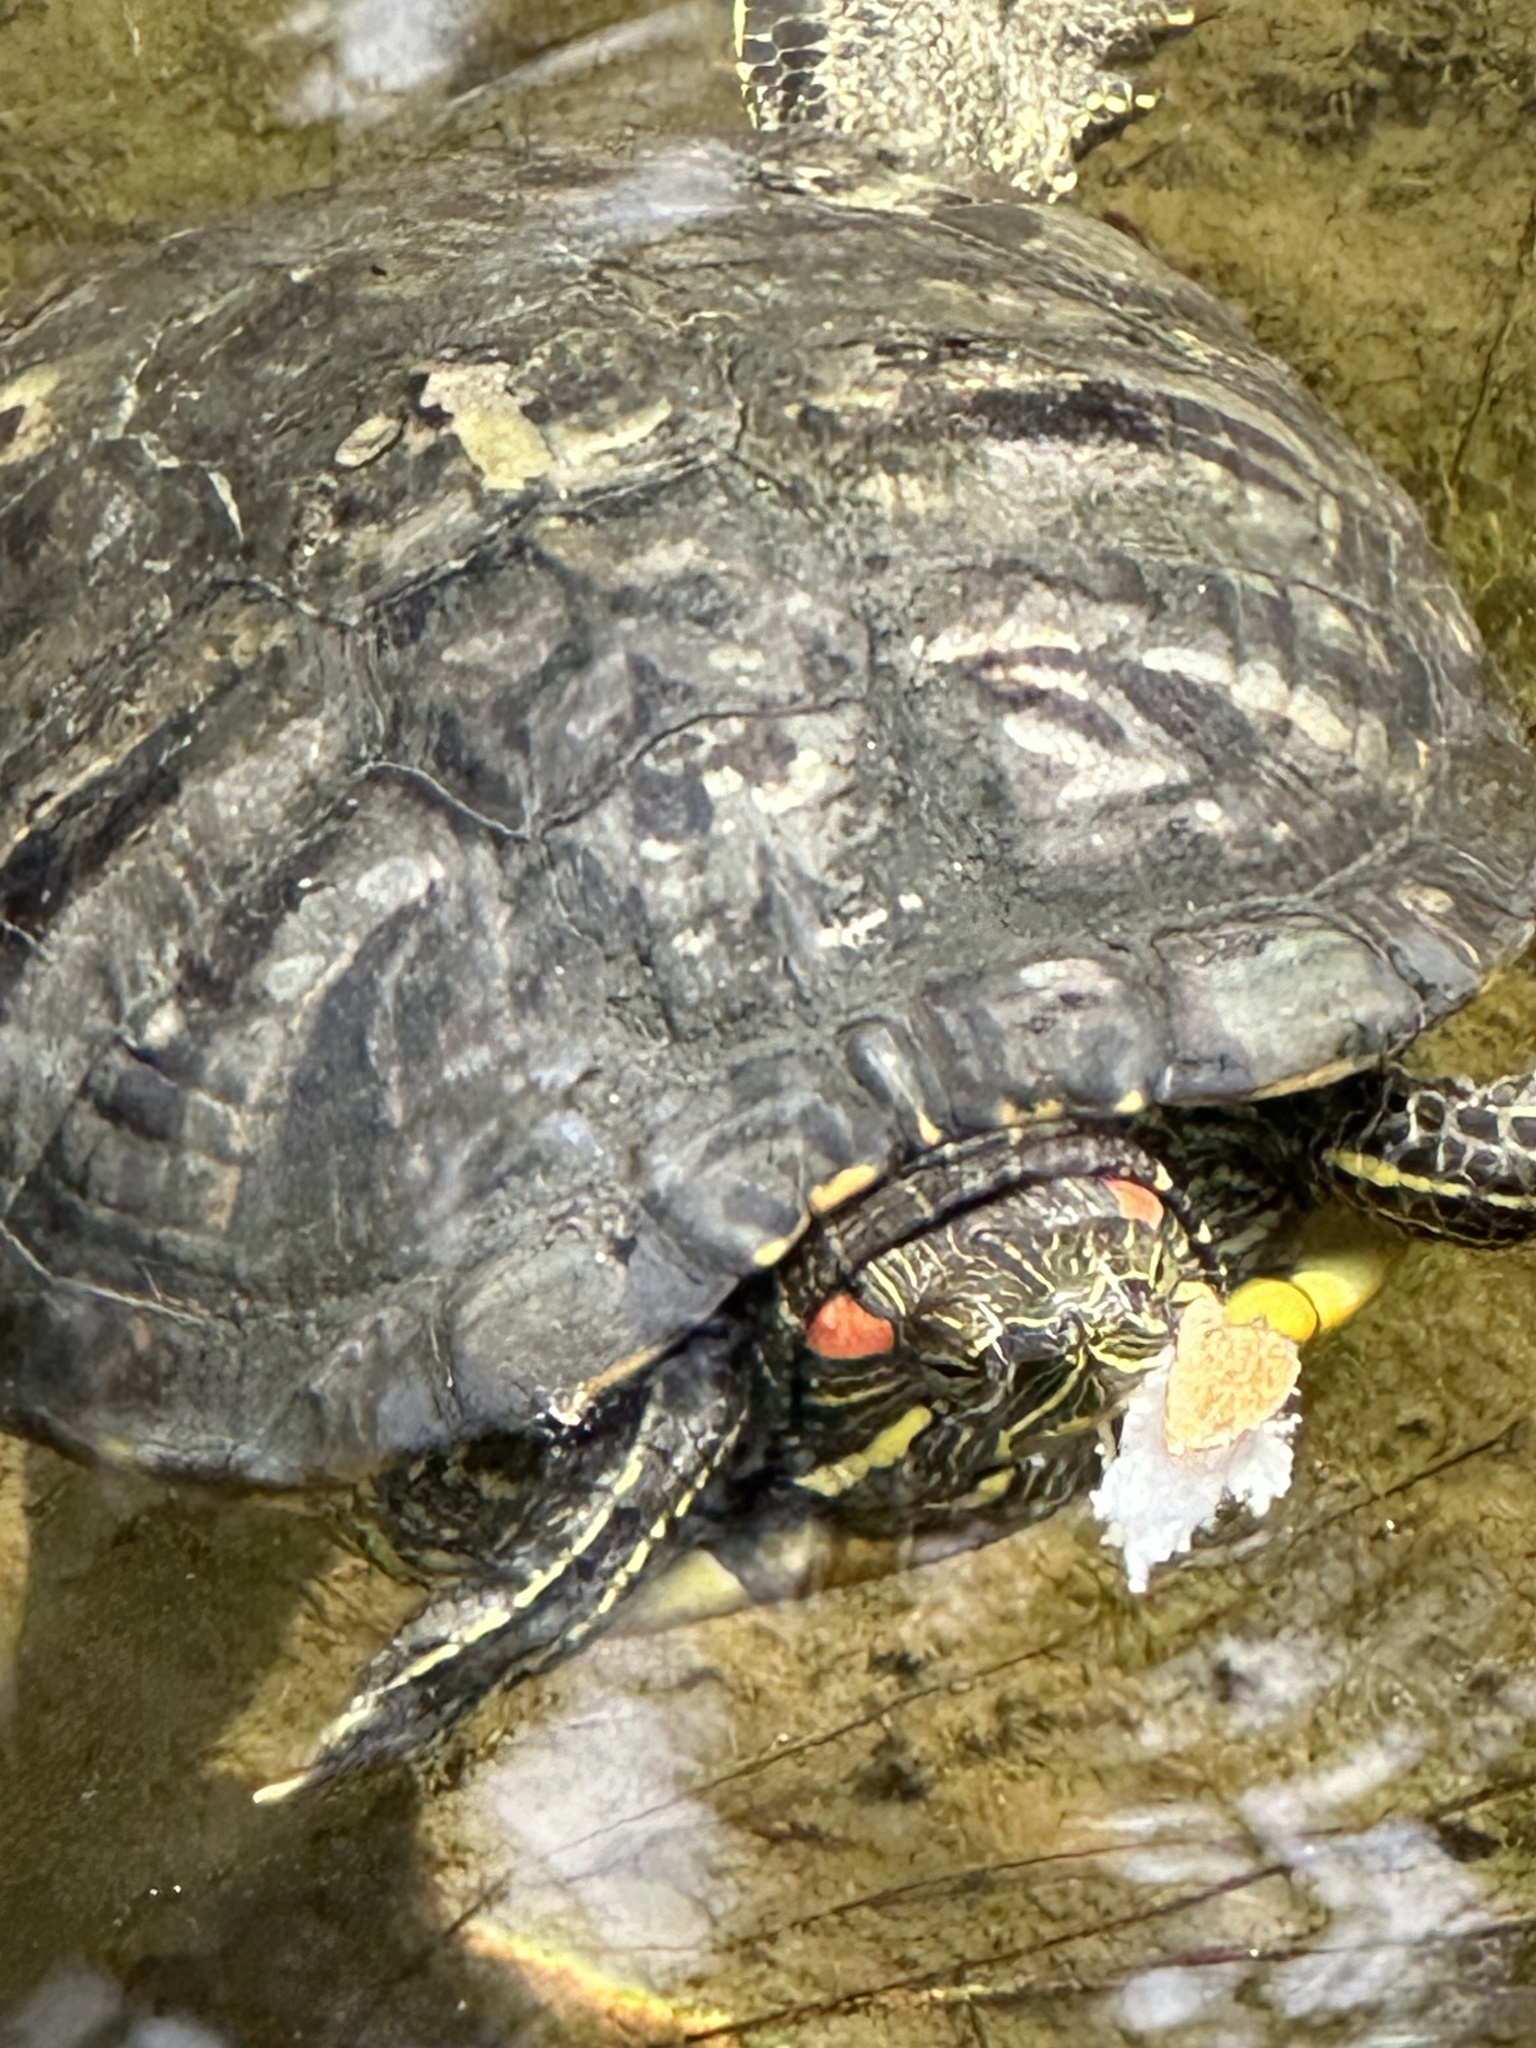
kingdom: Animalia
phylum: Chordata
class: Testudines
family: Emydidae
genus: Trachemys
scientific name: Trachemys scripta
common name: Slider
